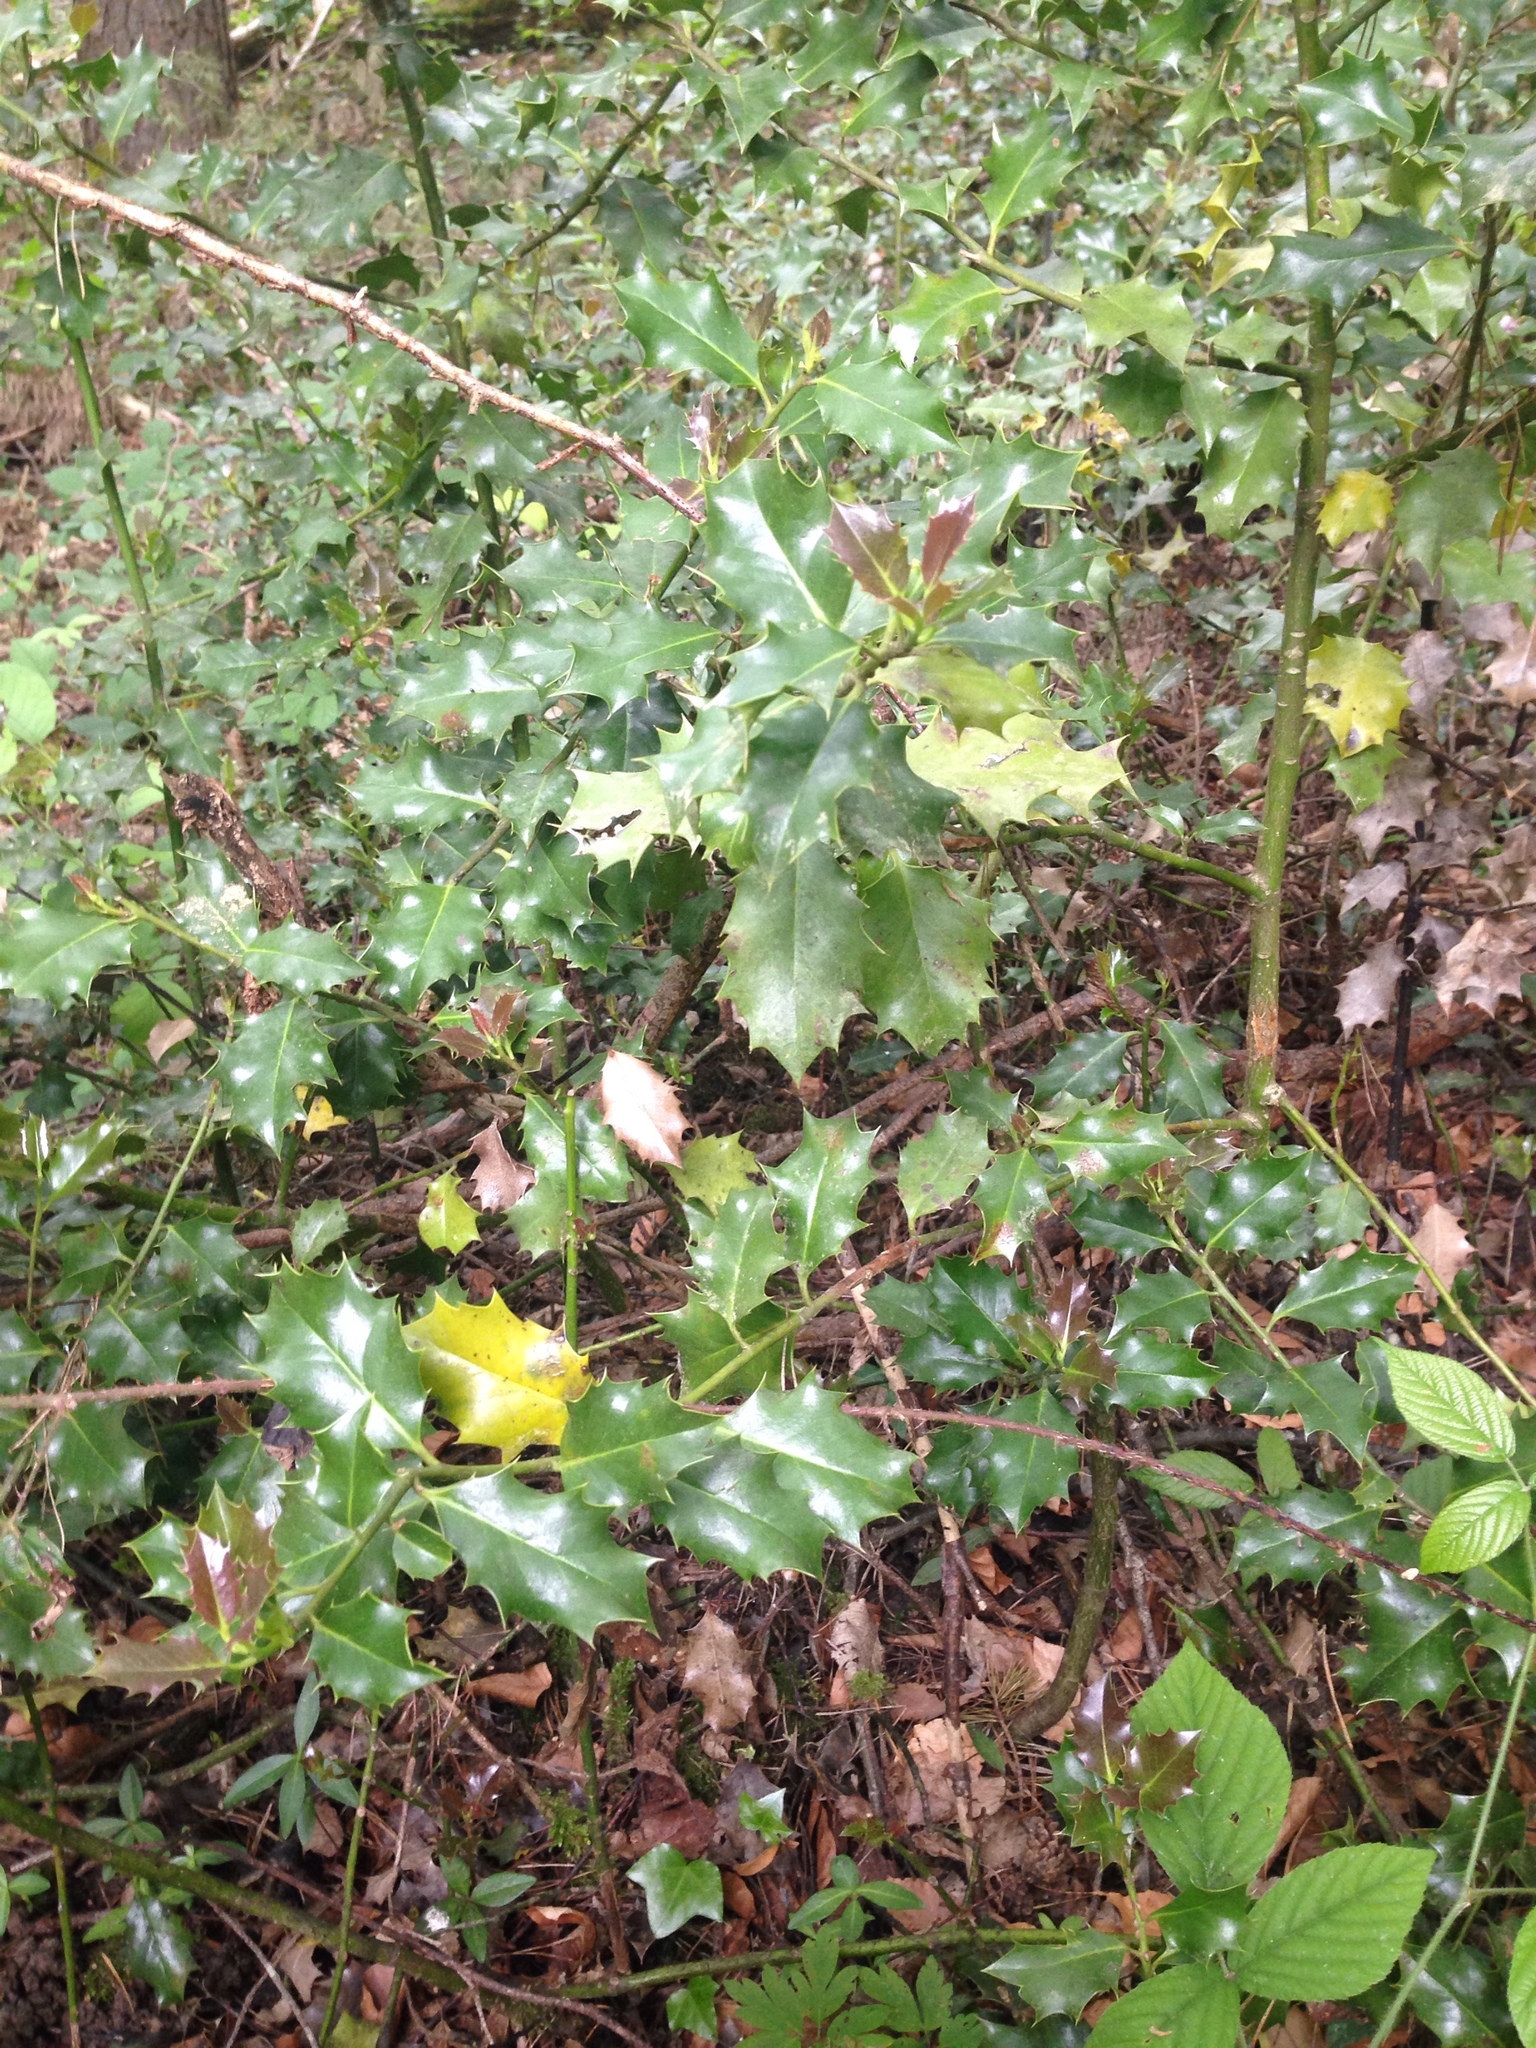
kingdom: Plantae
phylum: Tracheophyta
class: Magnoliopsida
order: Aquifoliales
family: Aquifoliaceae
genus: Ilex
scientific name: Ilex aquifolium
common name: English holly
